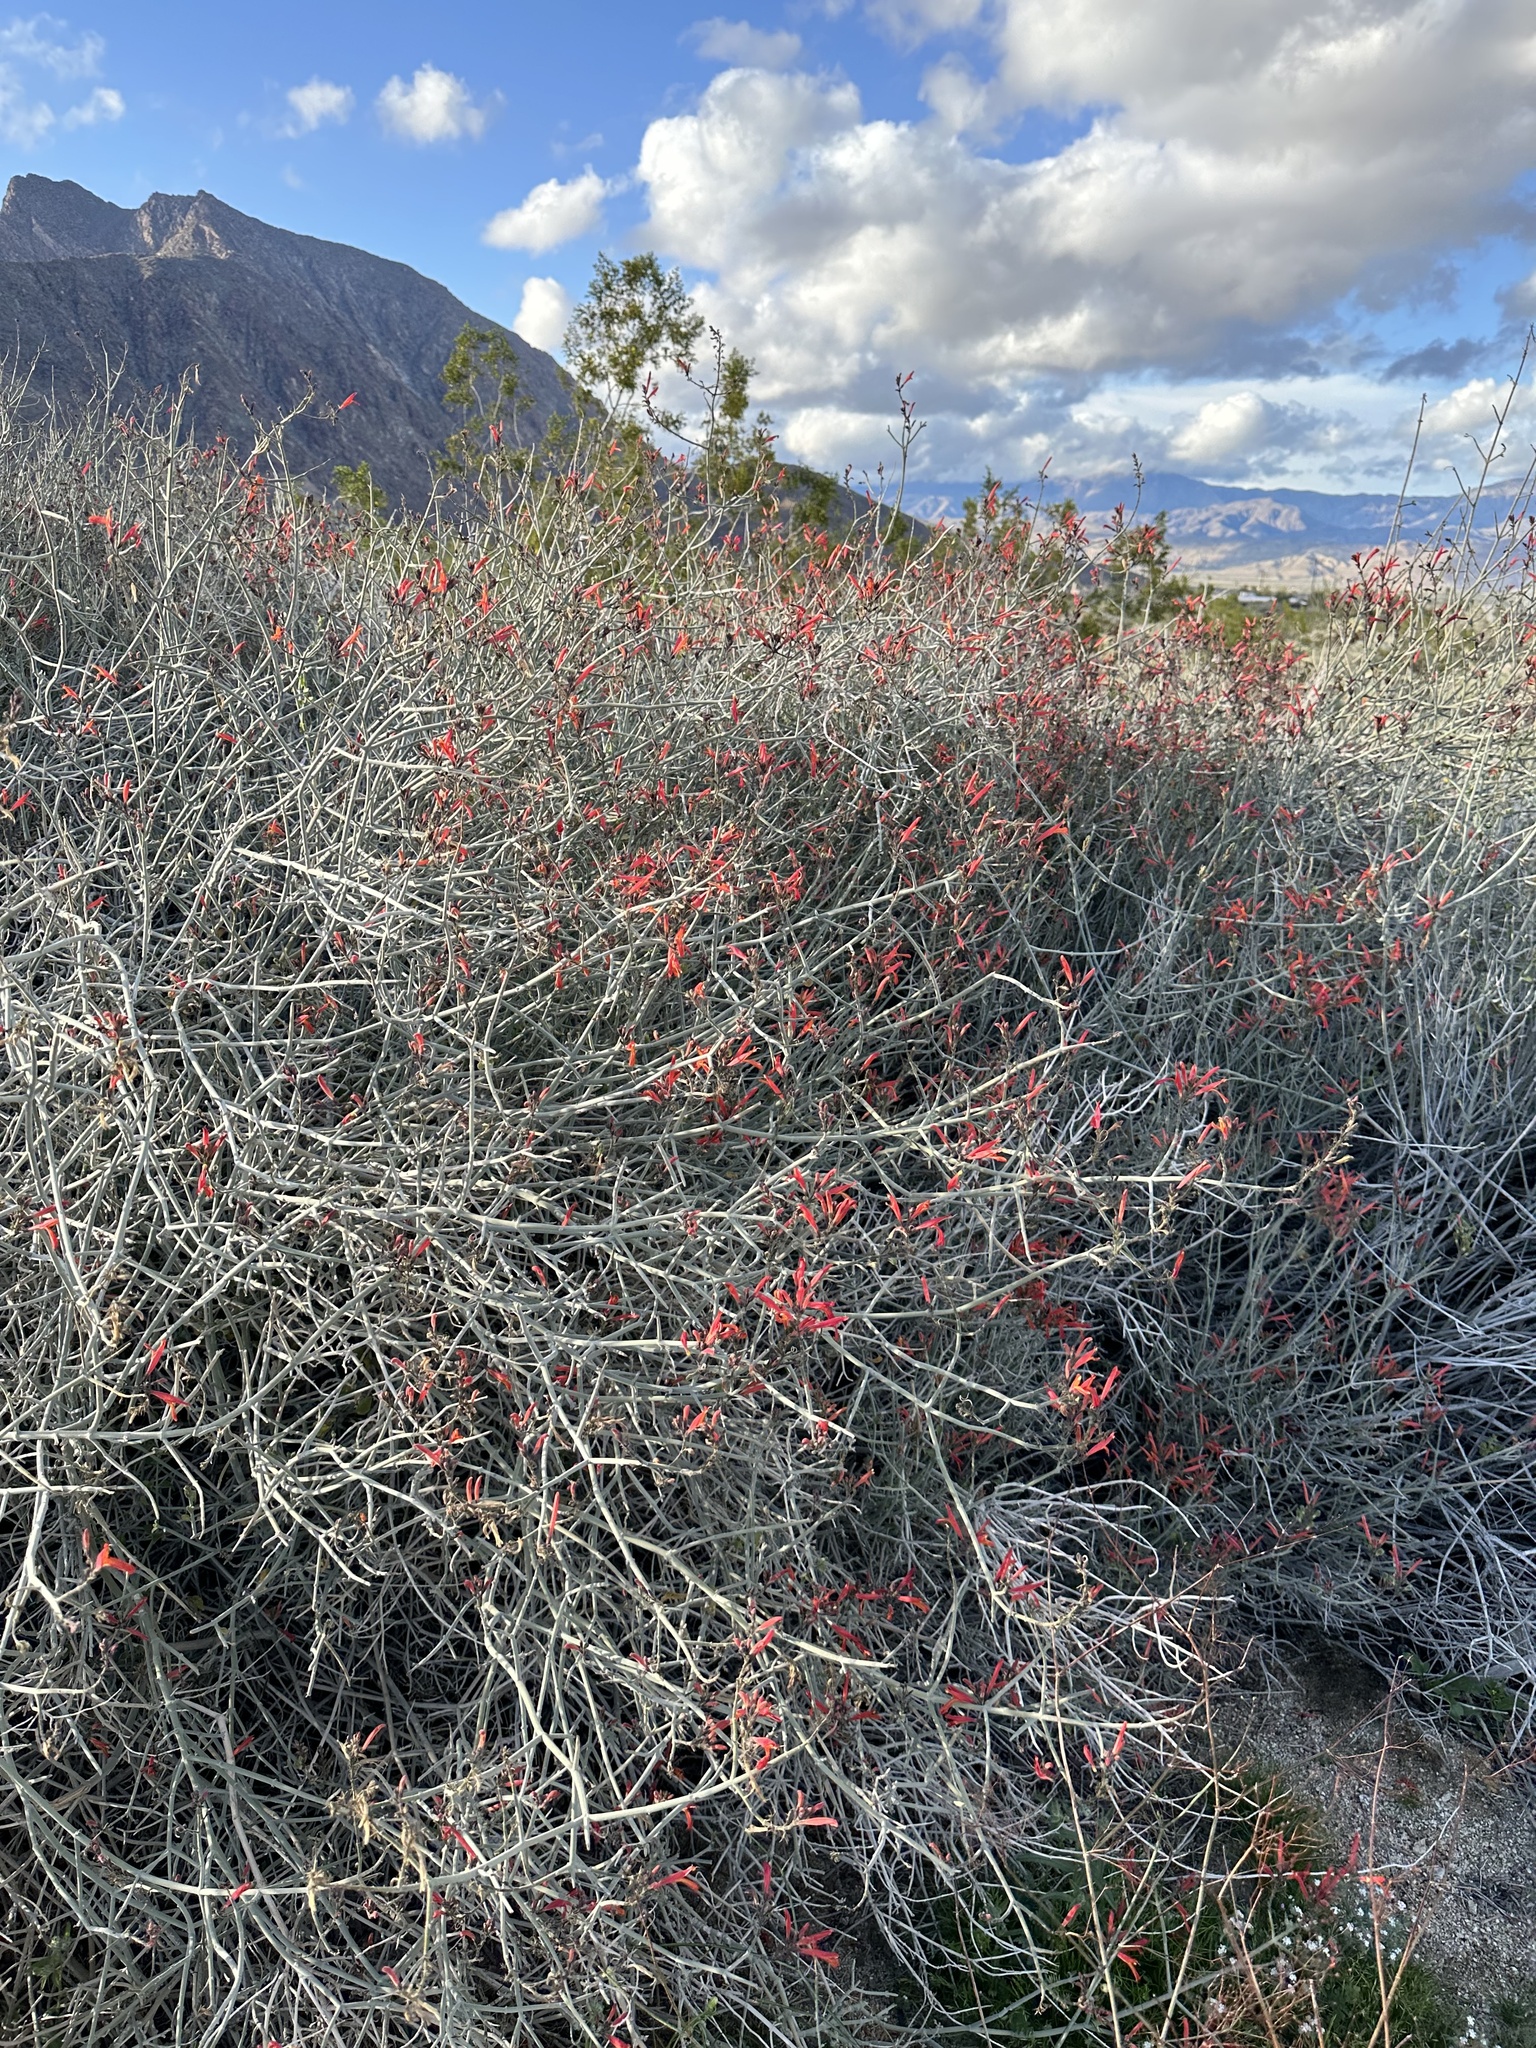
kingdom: Plantae
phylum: Tracheophyta
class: Magnoliopsida
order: Lamiales
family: Acanthaceae
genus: Justicia
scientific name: Justicia californica
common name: Chuparosa-honeysuckle
